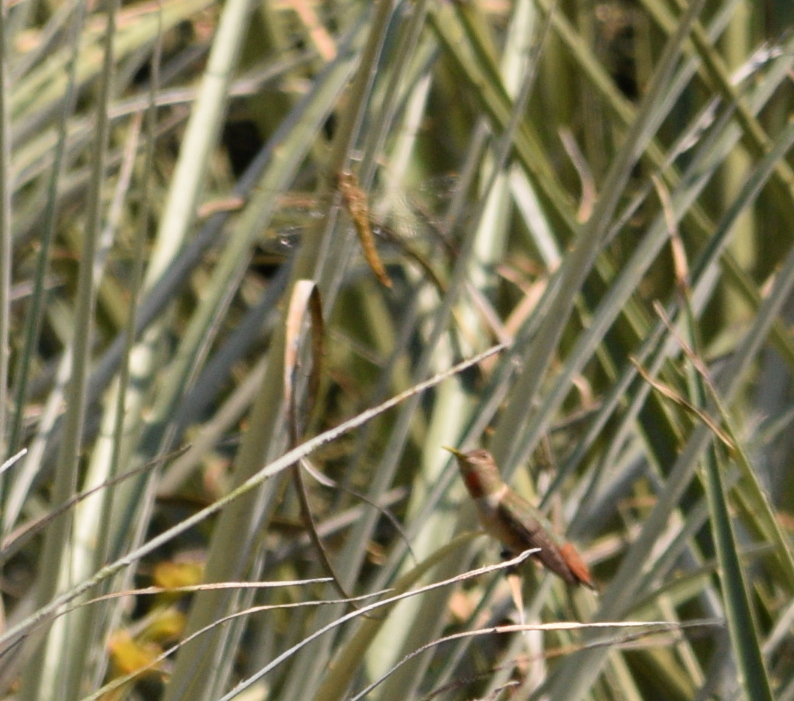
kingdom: Animalia
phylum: Chordata
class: Aves
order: Apodiformes
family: Trochilidae
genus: Selasphorus
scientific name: Selasphorus sasin
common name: Allen's hummingbird
